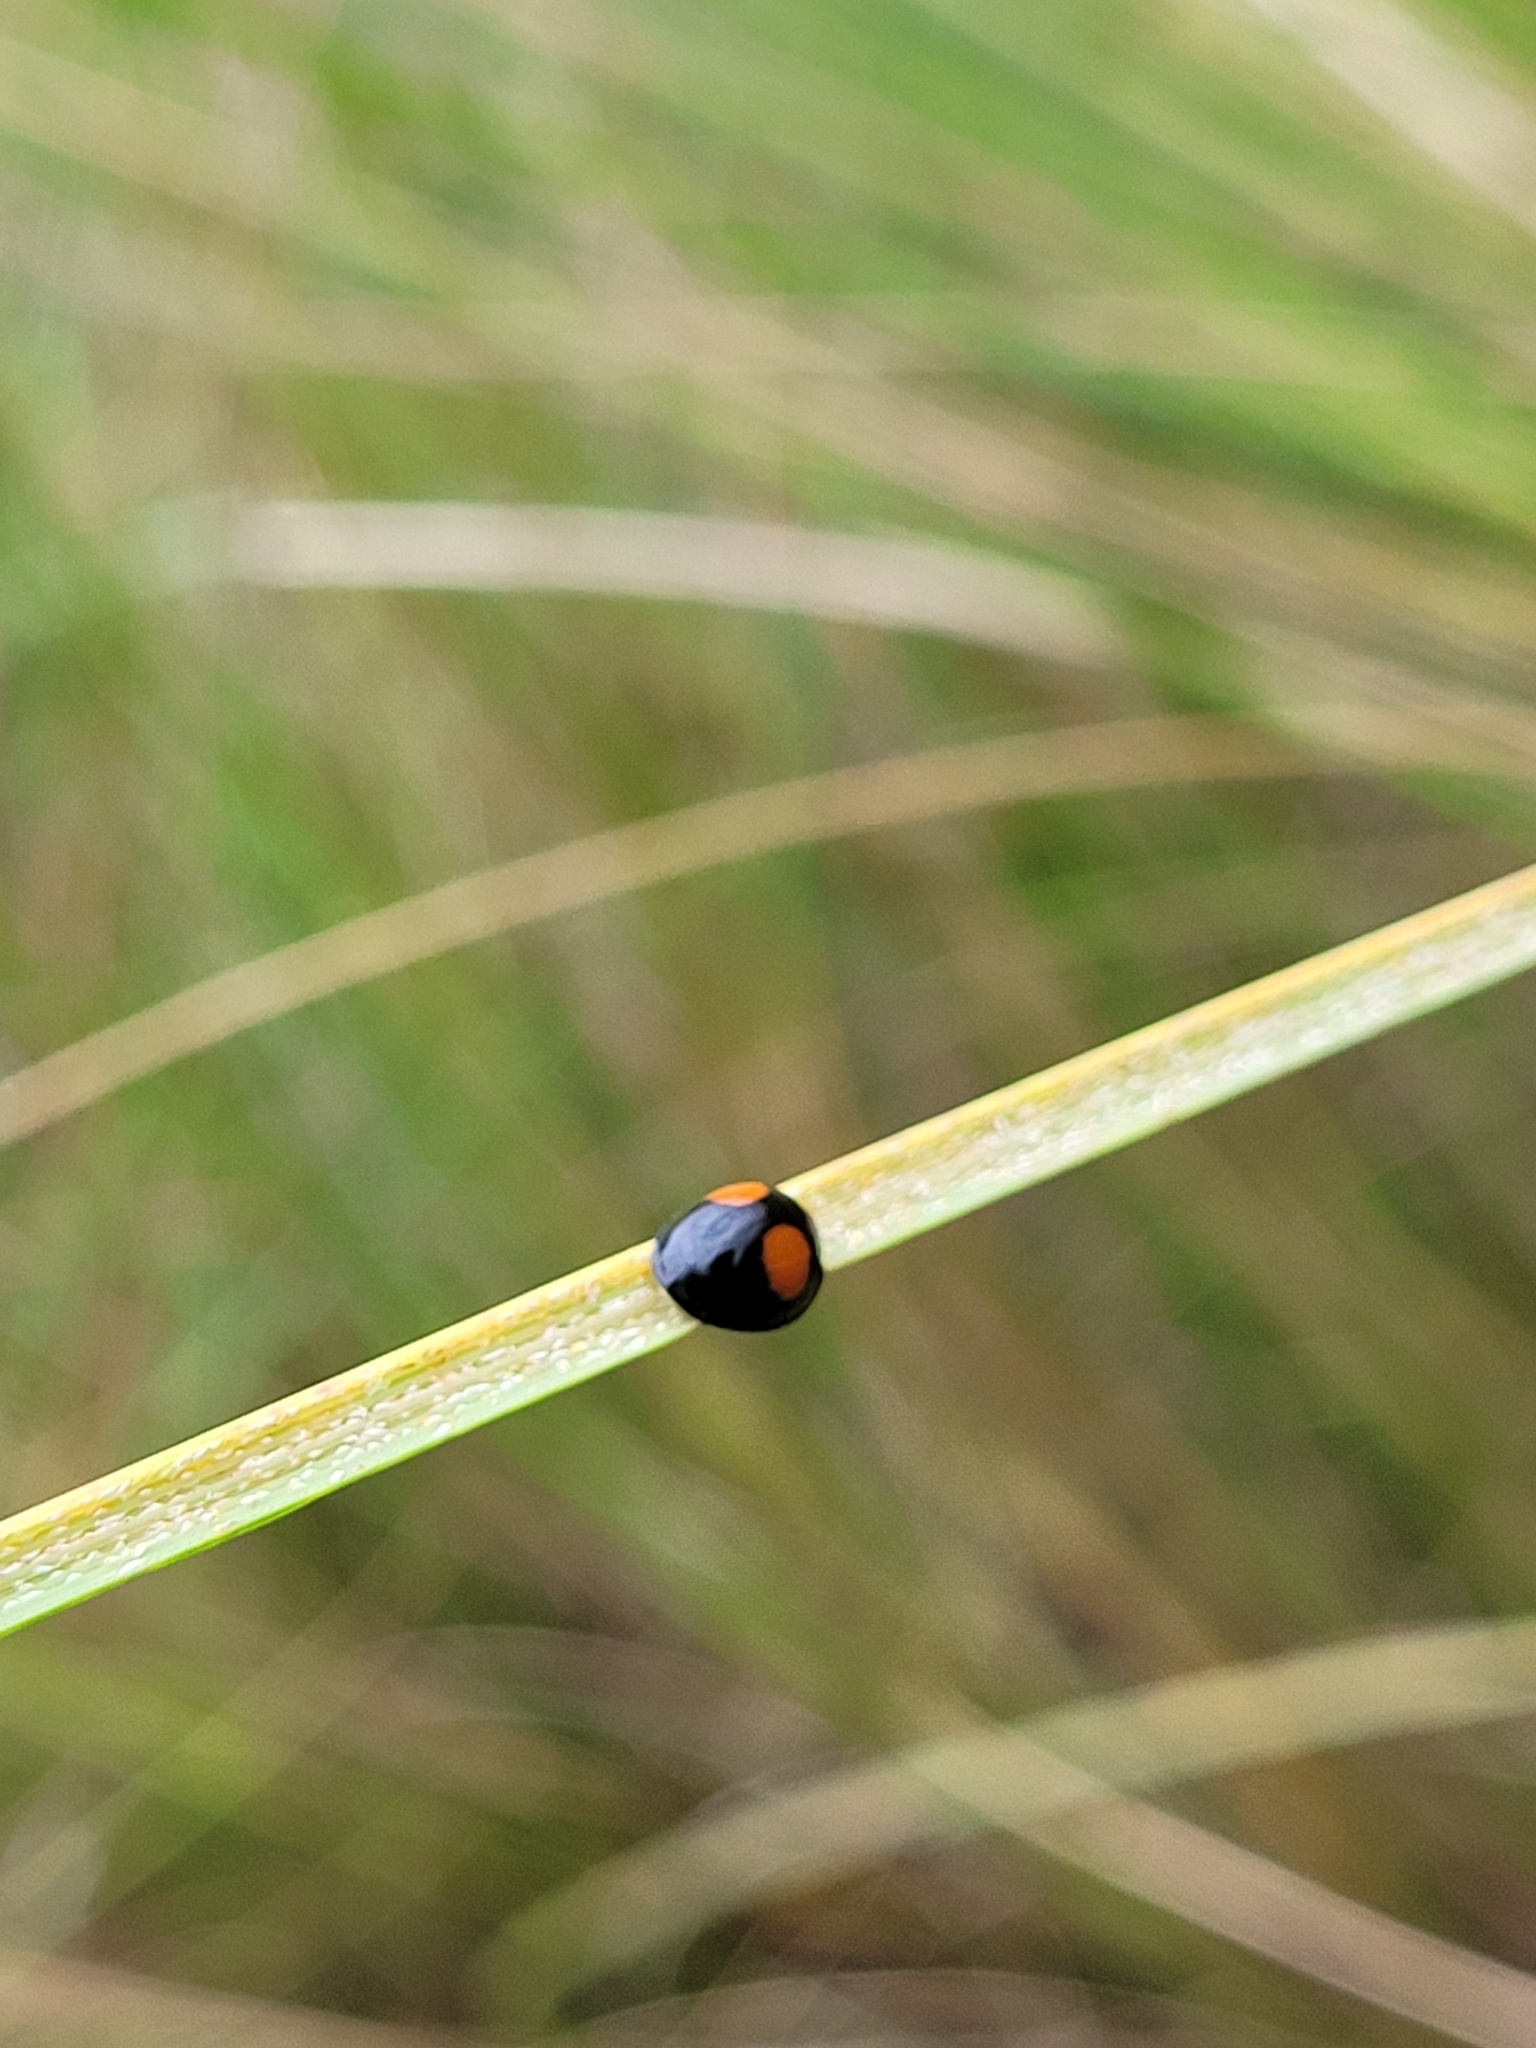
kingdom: Animalia
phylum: Arthropoda
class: Insecta
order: Coleoptera
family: Coccinellidae
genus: Chilocorus
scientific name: Chilocorus cacti
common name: Cactus lady beetle
